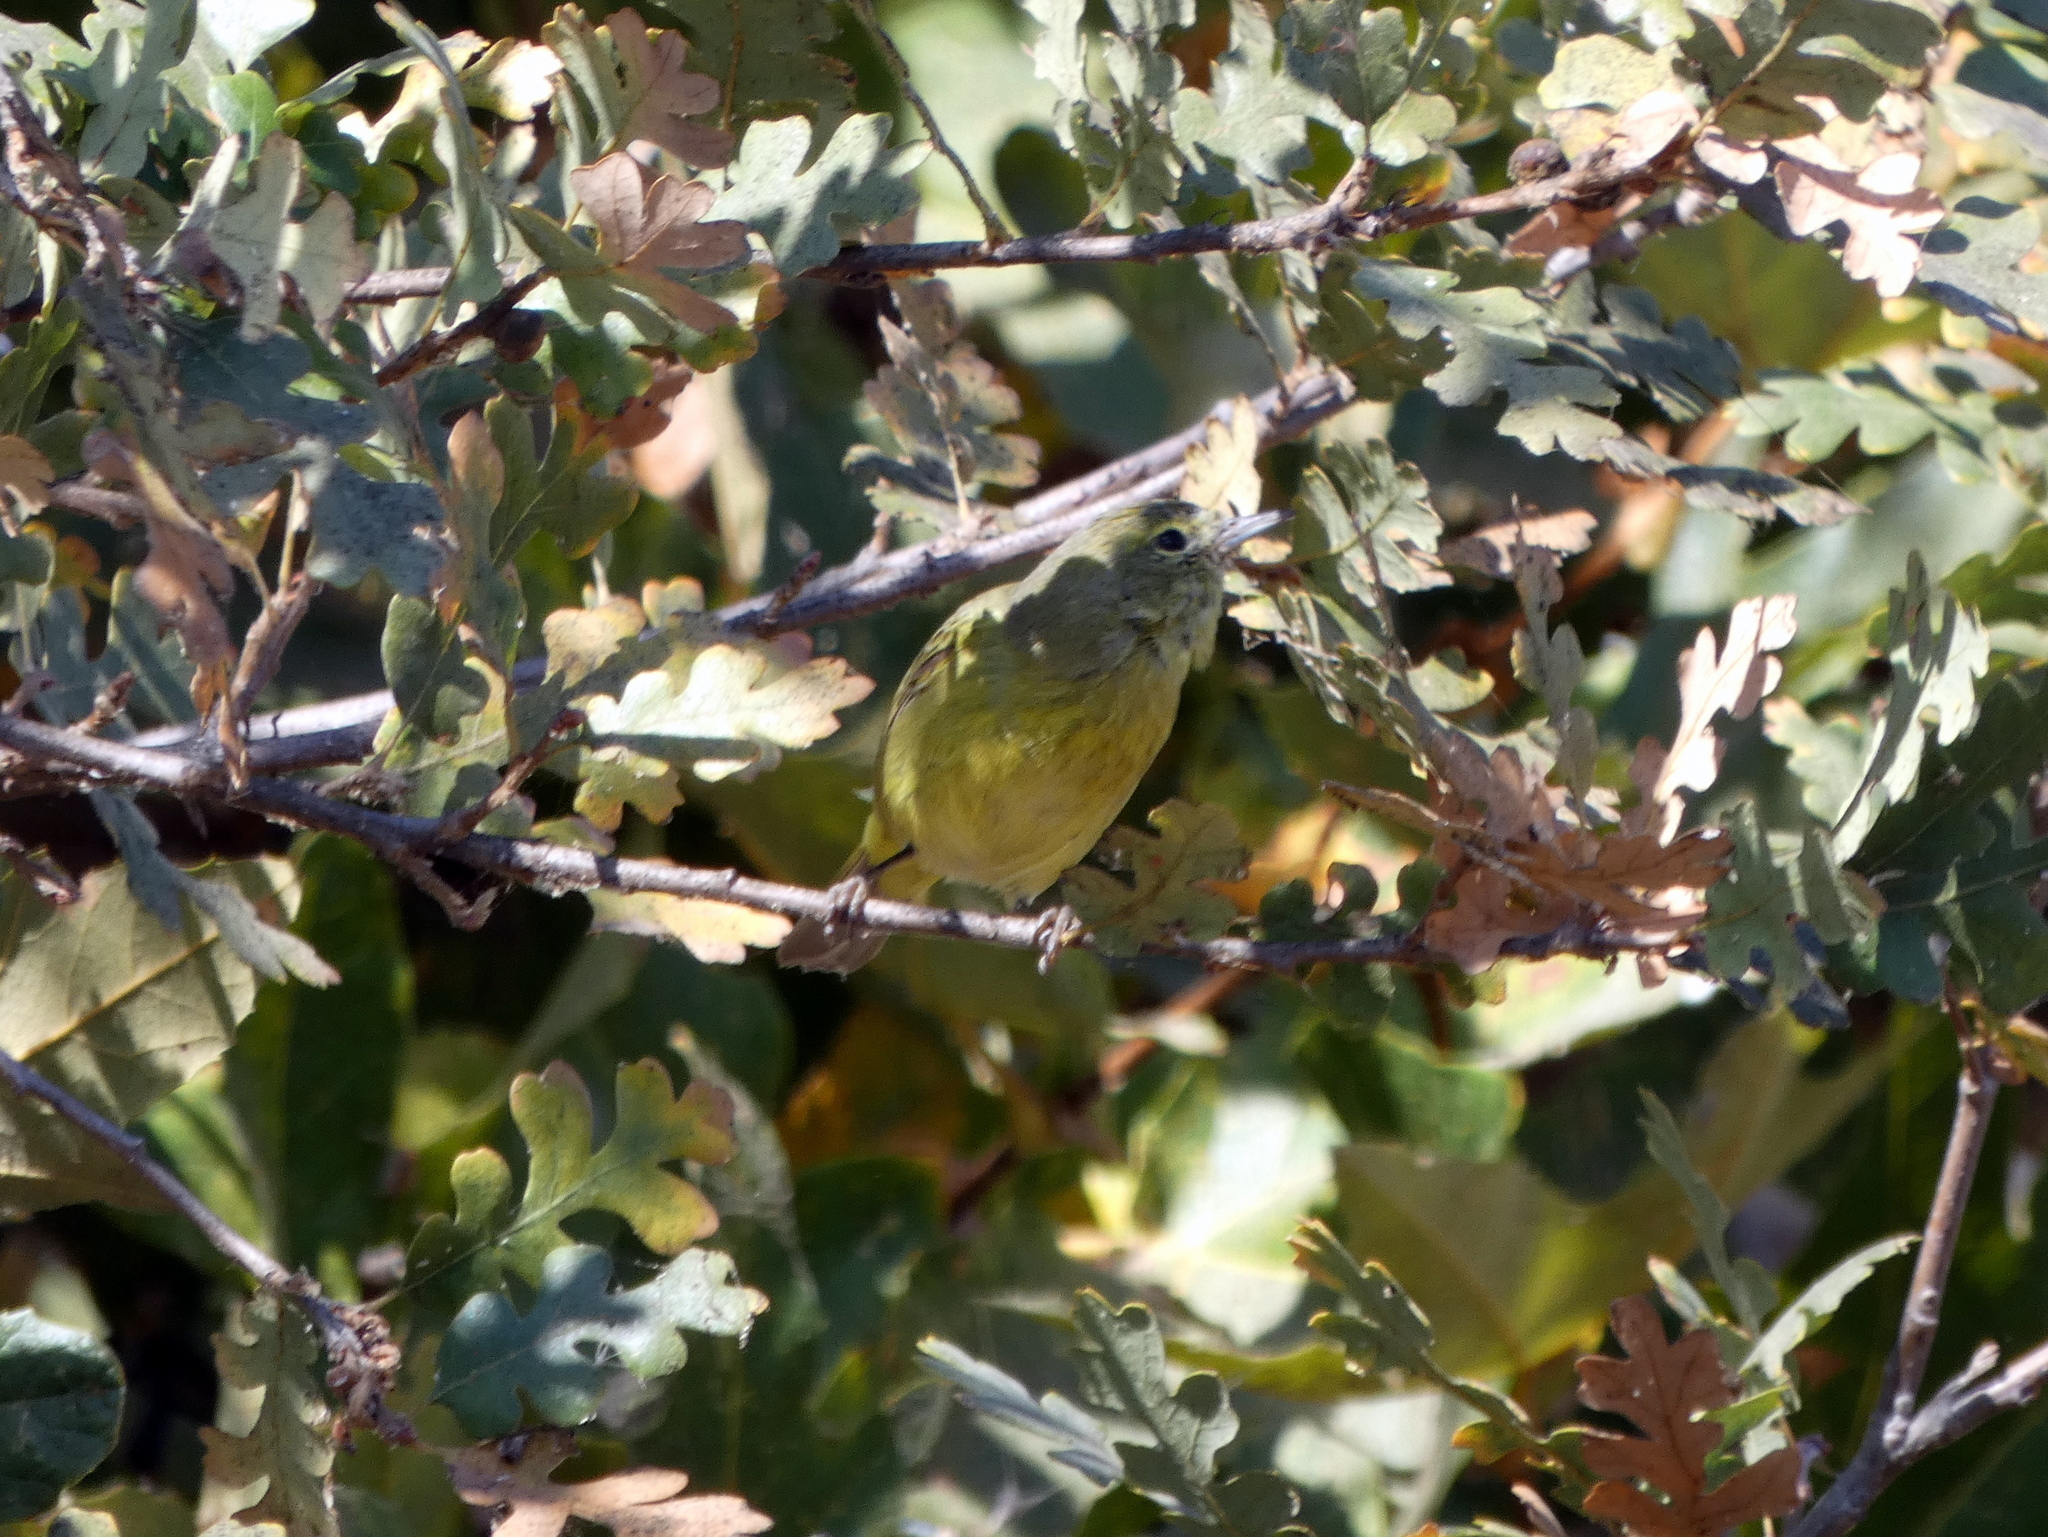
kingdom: Animalia
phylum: Chordata
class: Aves
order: Passeriformes
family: Parulidae
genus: Leiothlypis
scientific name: Leiothlypis celata
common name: Orange-crowned warbler
